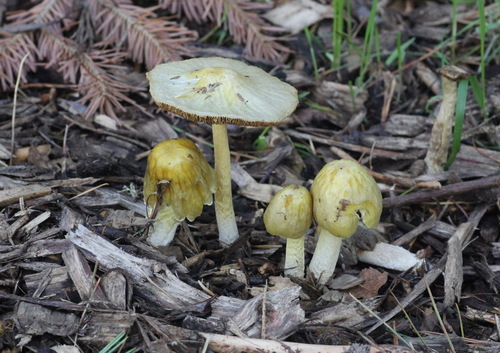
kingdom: Fungi
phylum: Basidiomycota
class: Agaricomycetes
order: Agaricales
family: Bolbitiaceae
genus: Bolbitius
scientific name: Bolbitius titubans
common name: Yellow fieldcap
